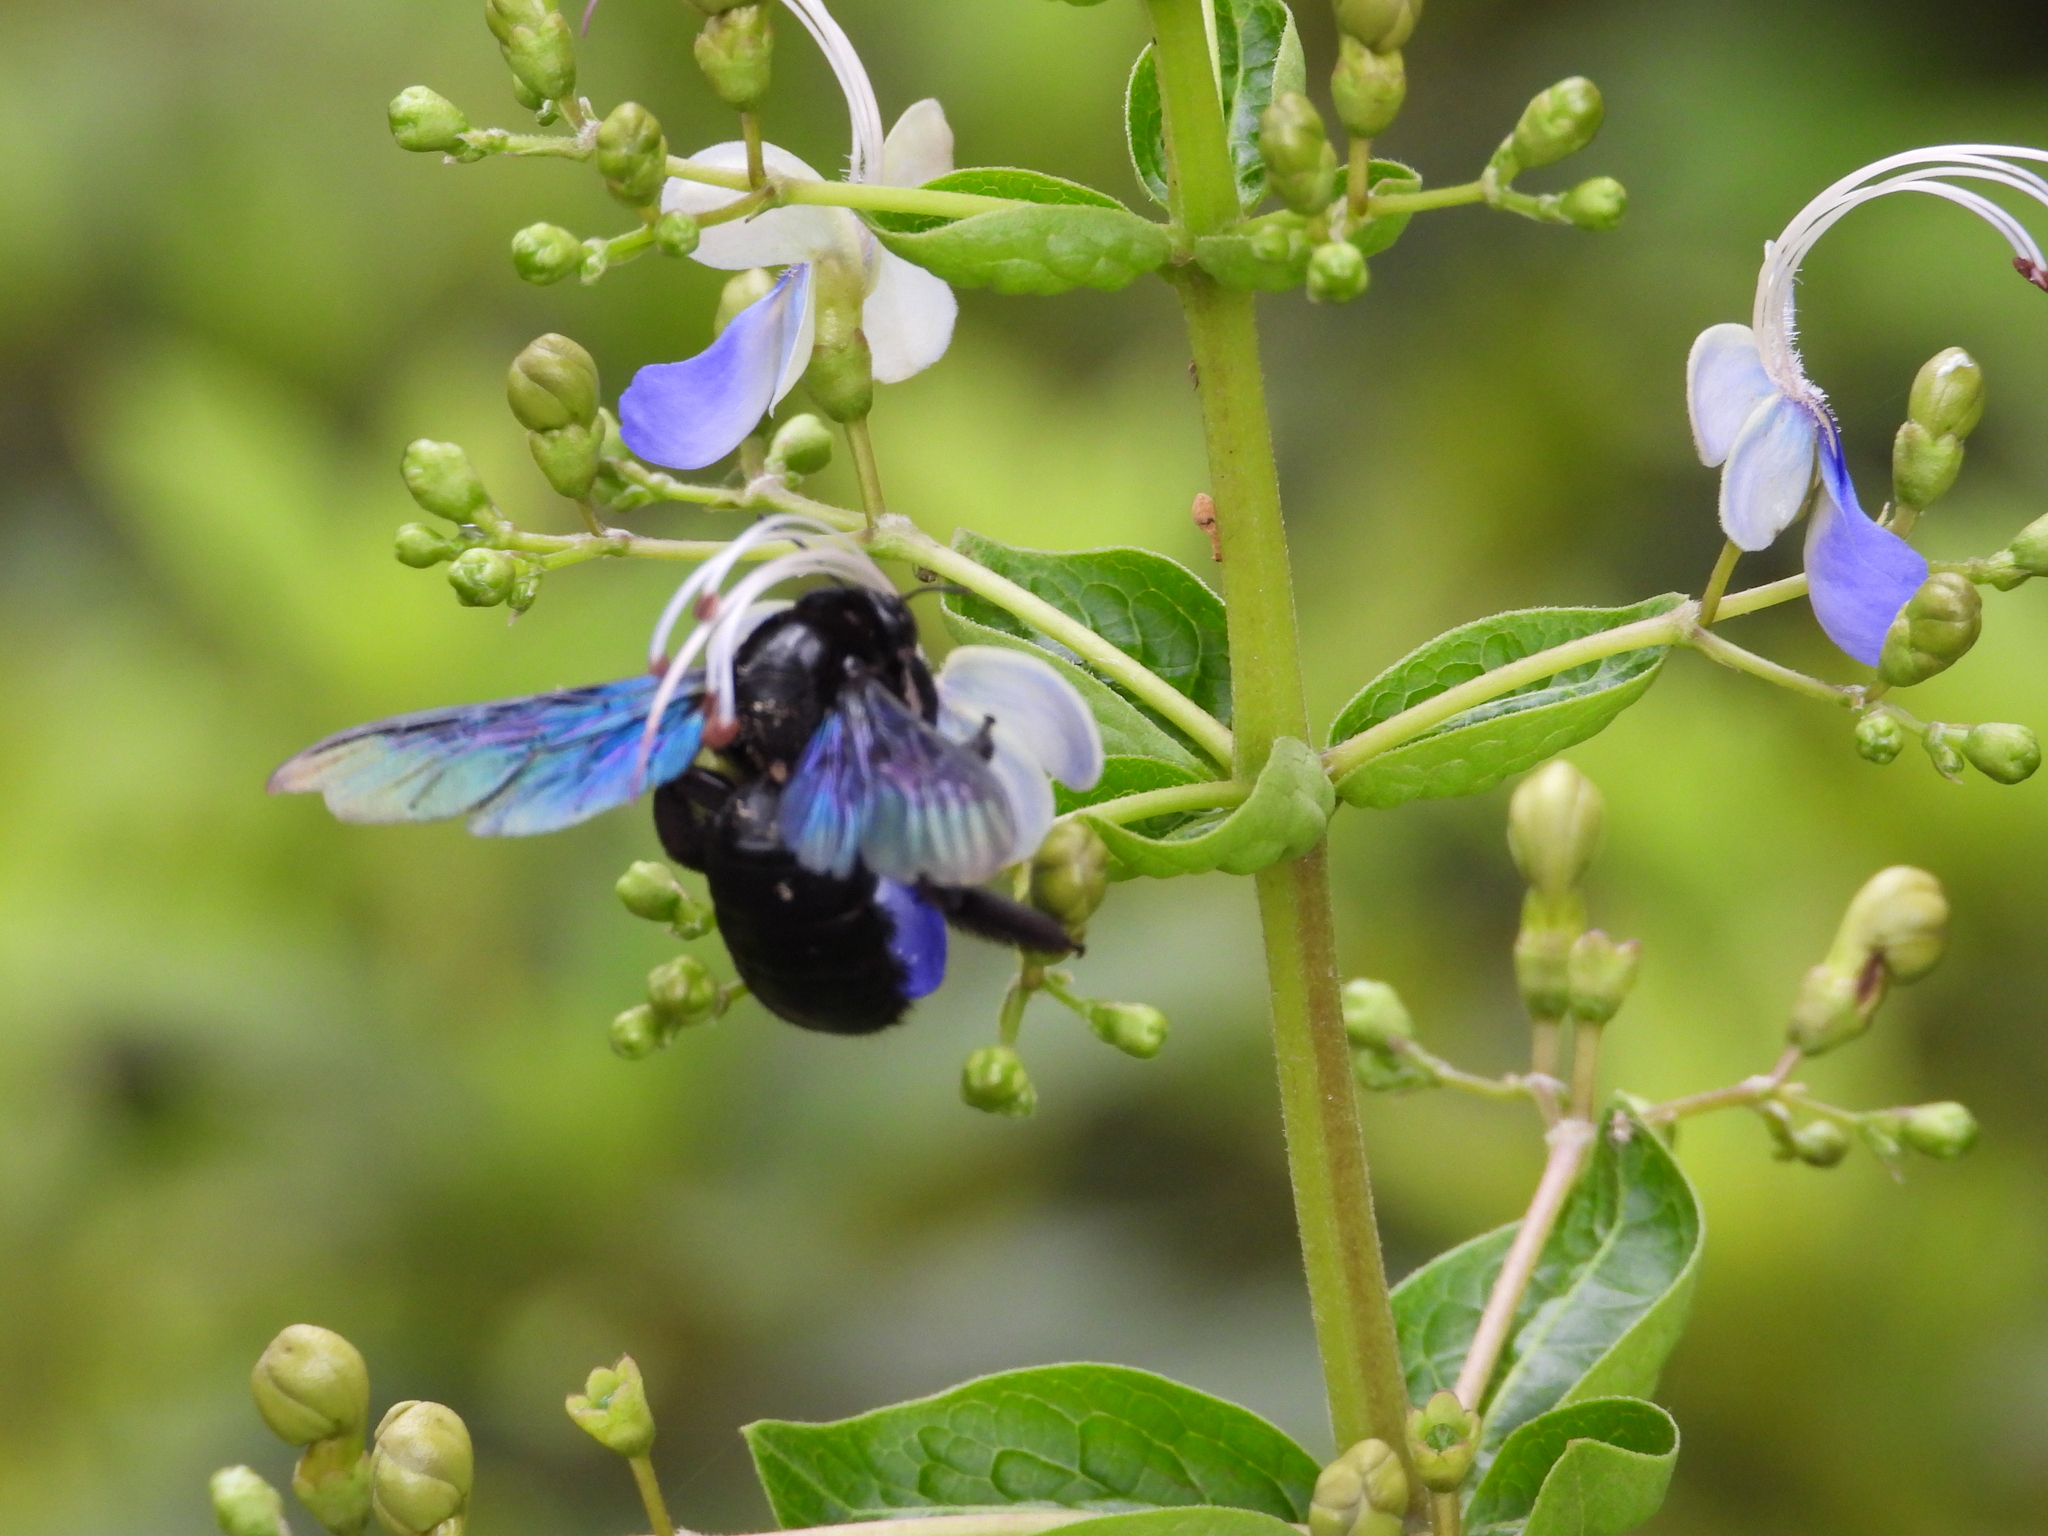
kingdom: Animalia
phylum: Arthropoda
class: Insecta
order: Hymenoptera
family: Apidae
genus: Xylocopa
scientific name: Xylocopa nasalis
